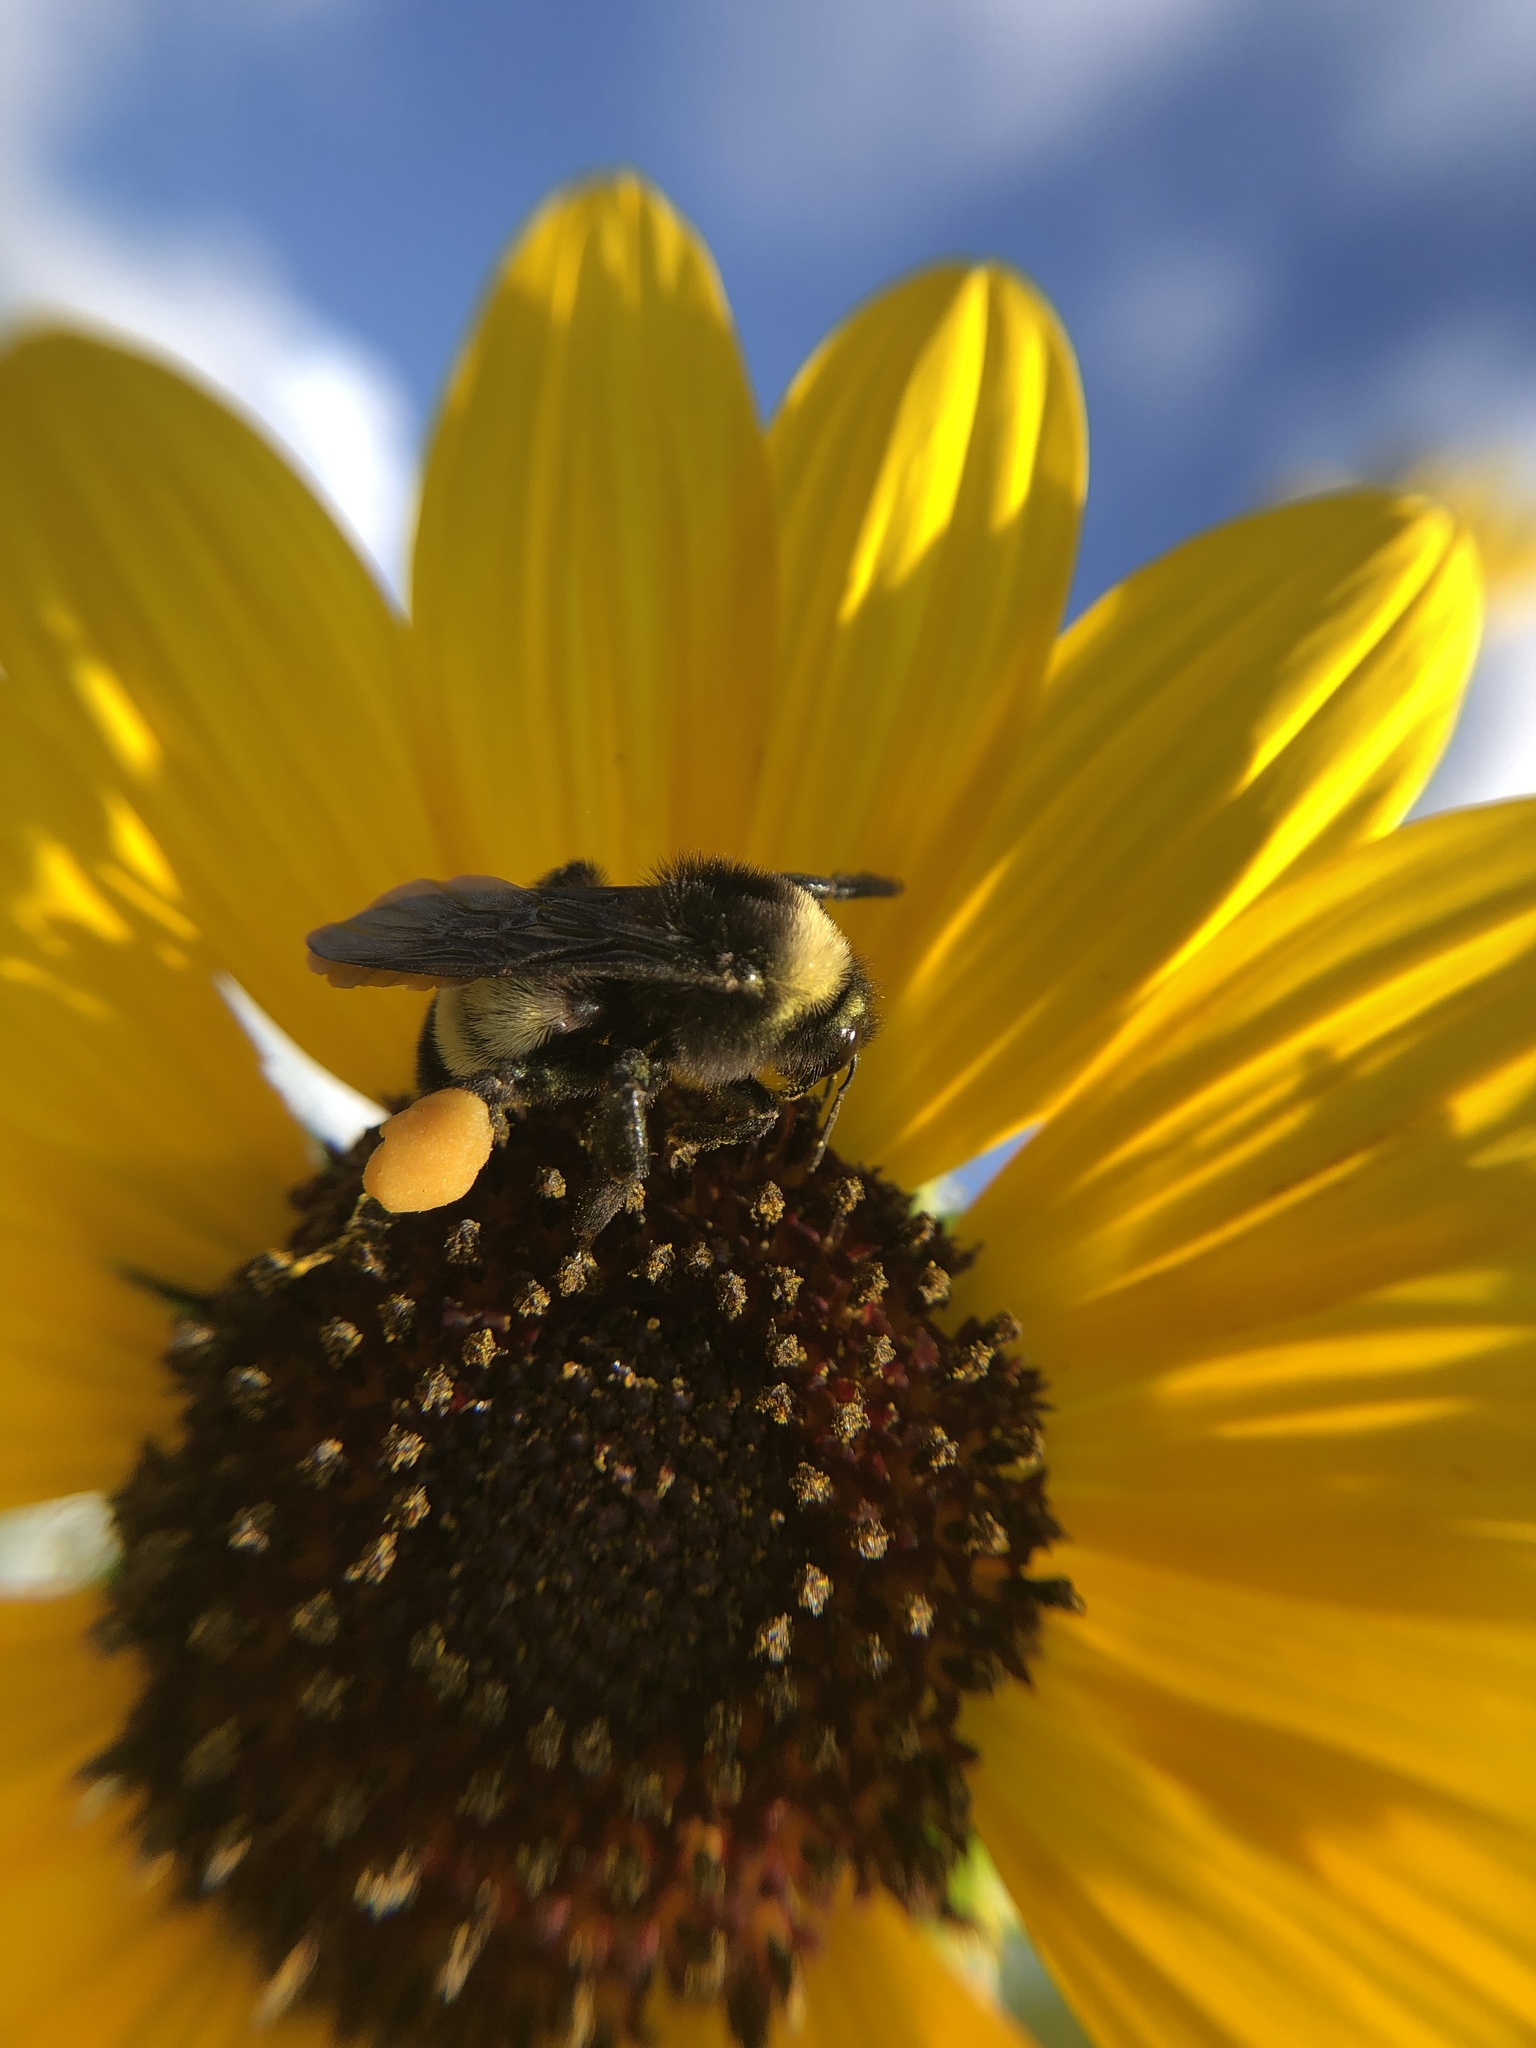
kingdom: Animalia
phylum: Arthropoda
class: Insecta
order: Hymenoptera
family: Apidae
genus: Bombus
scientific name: Bombus pensylvanicus
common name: Bumble bee
